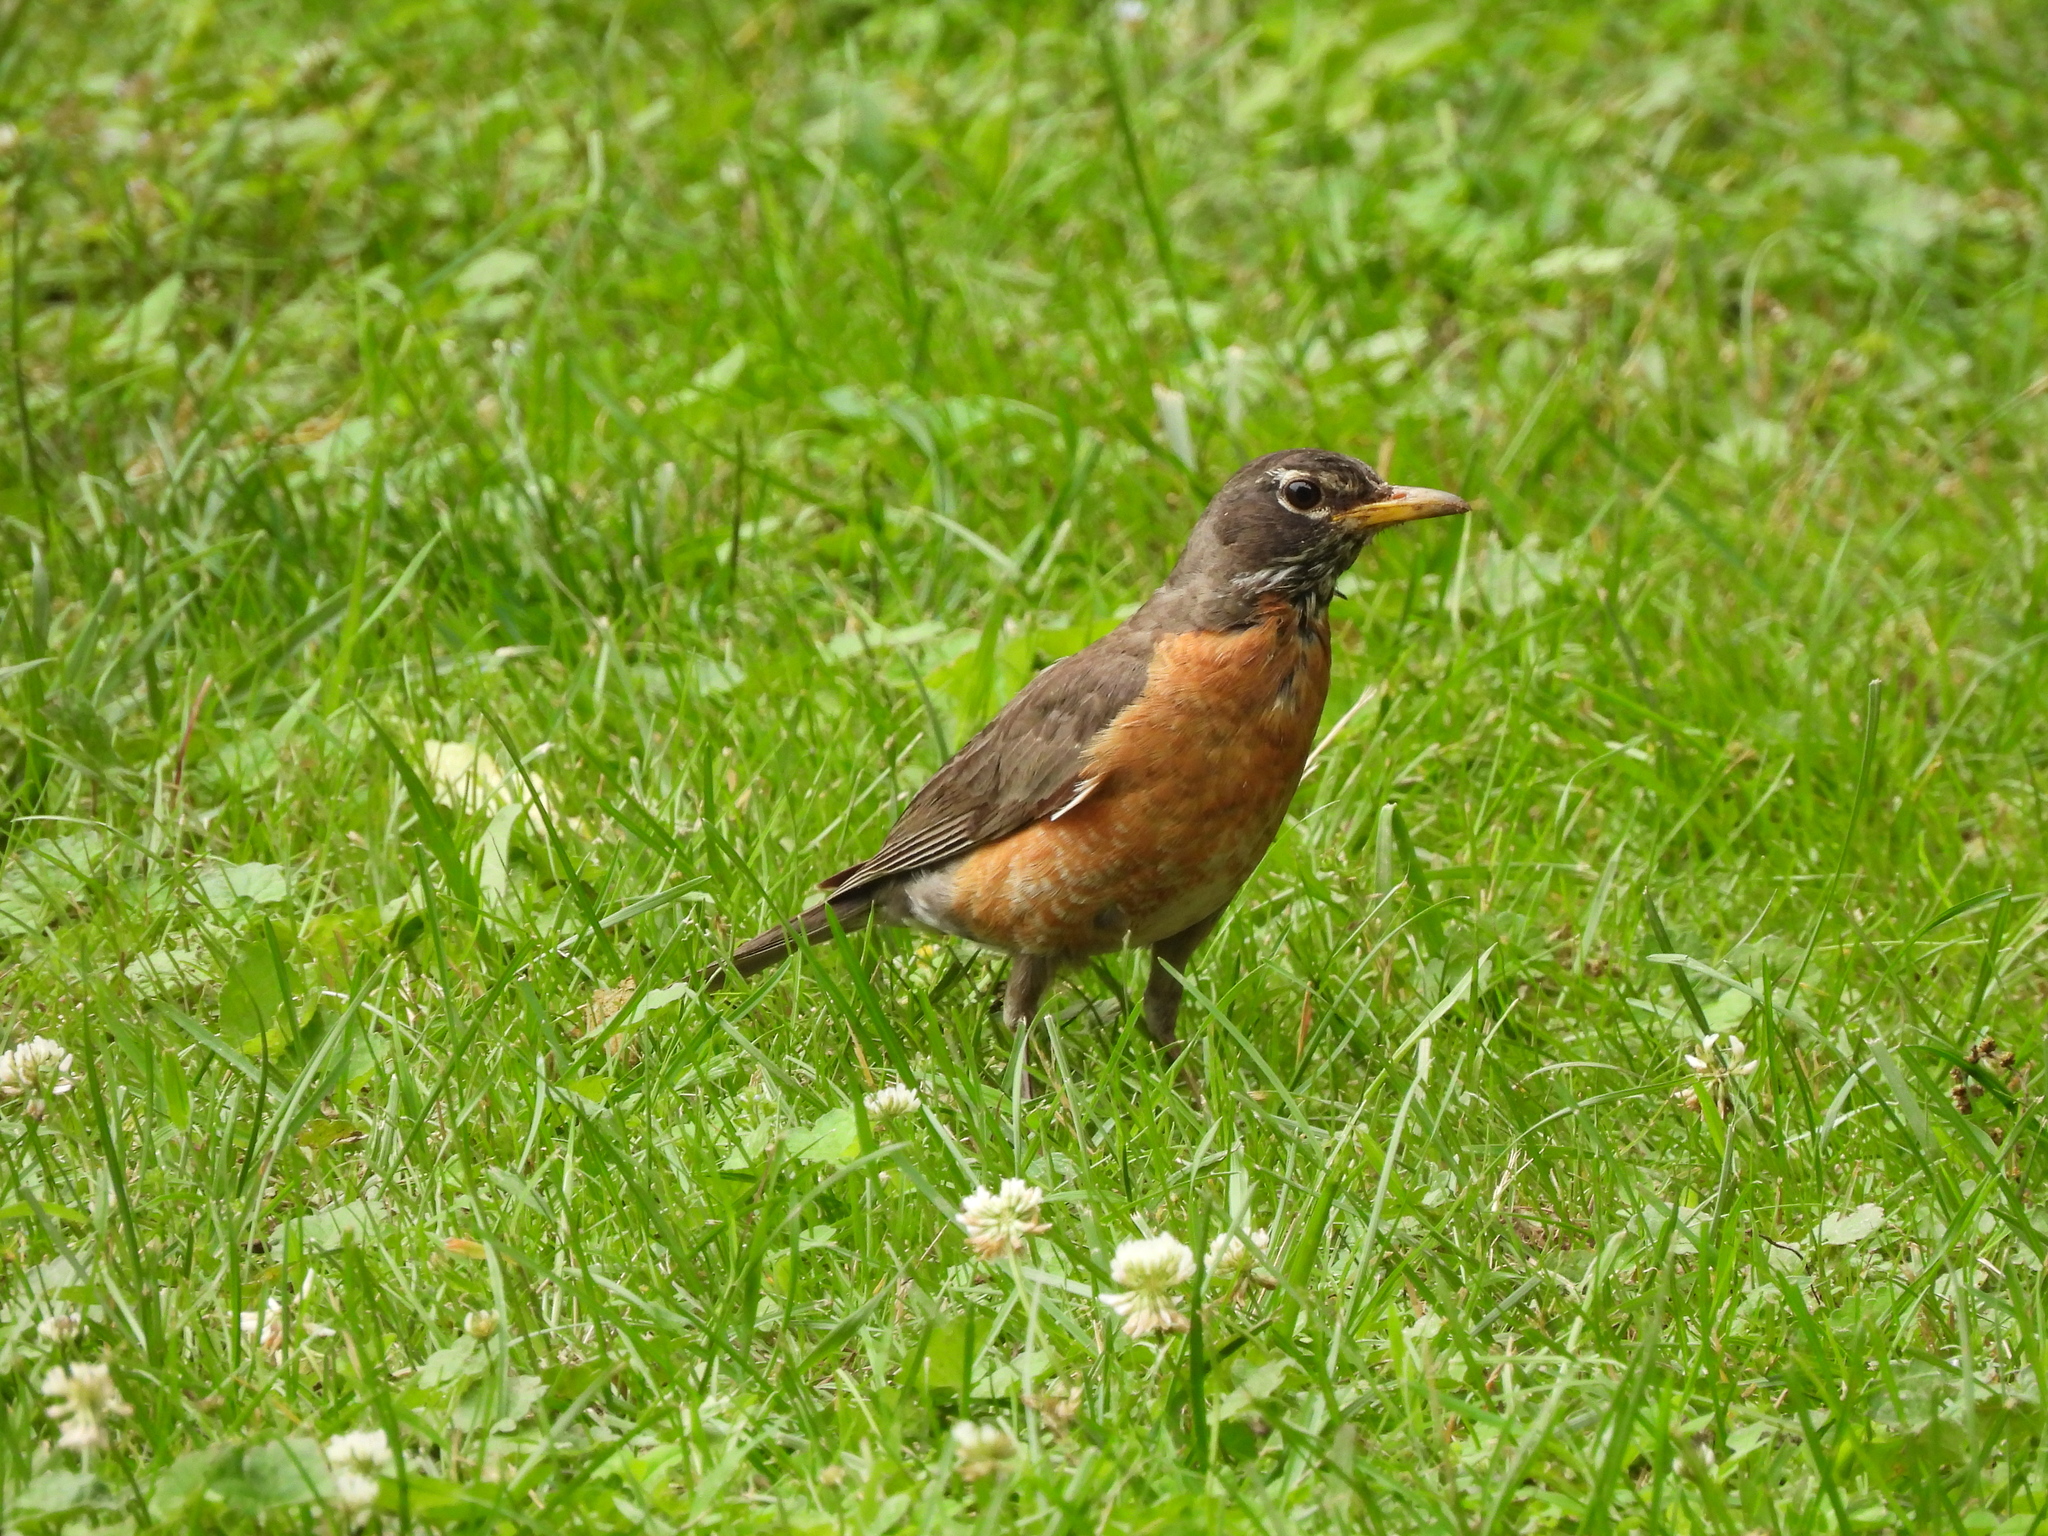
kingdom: Animalia
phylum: Chordata
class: Aves
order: Passeriformes
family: Turdidae
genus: Turdus
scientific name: Turdus migratorius
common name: American robin
